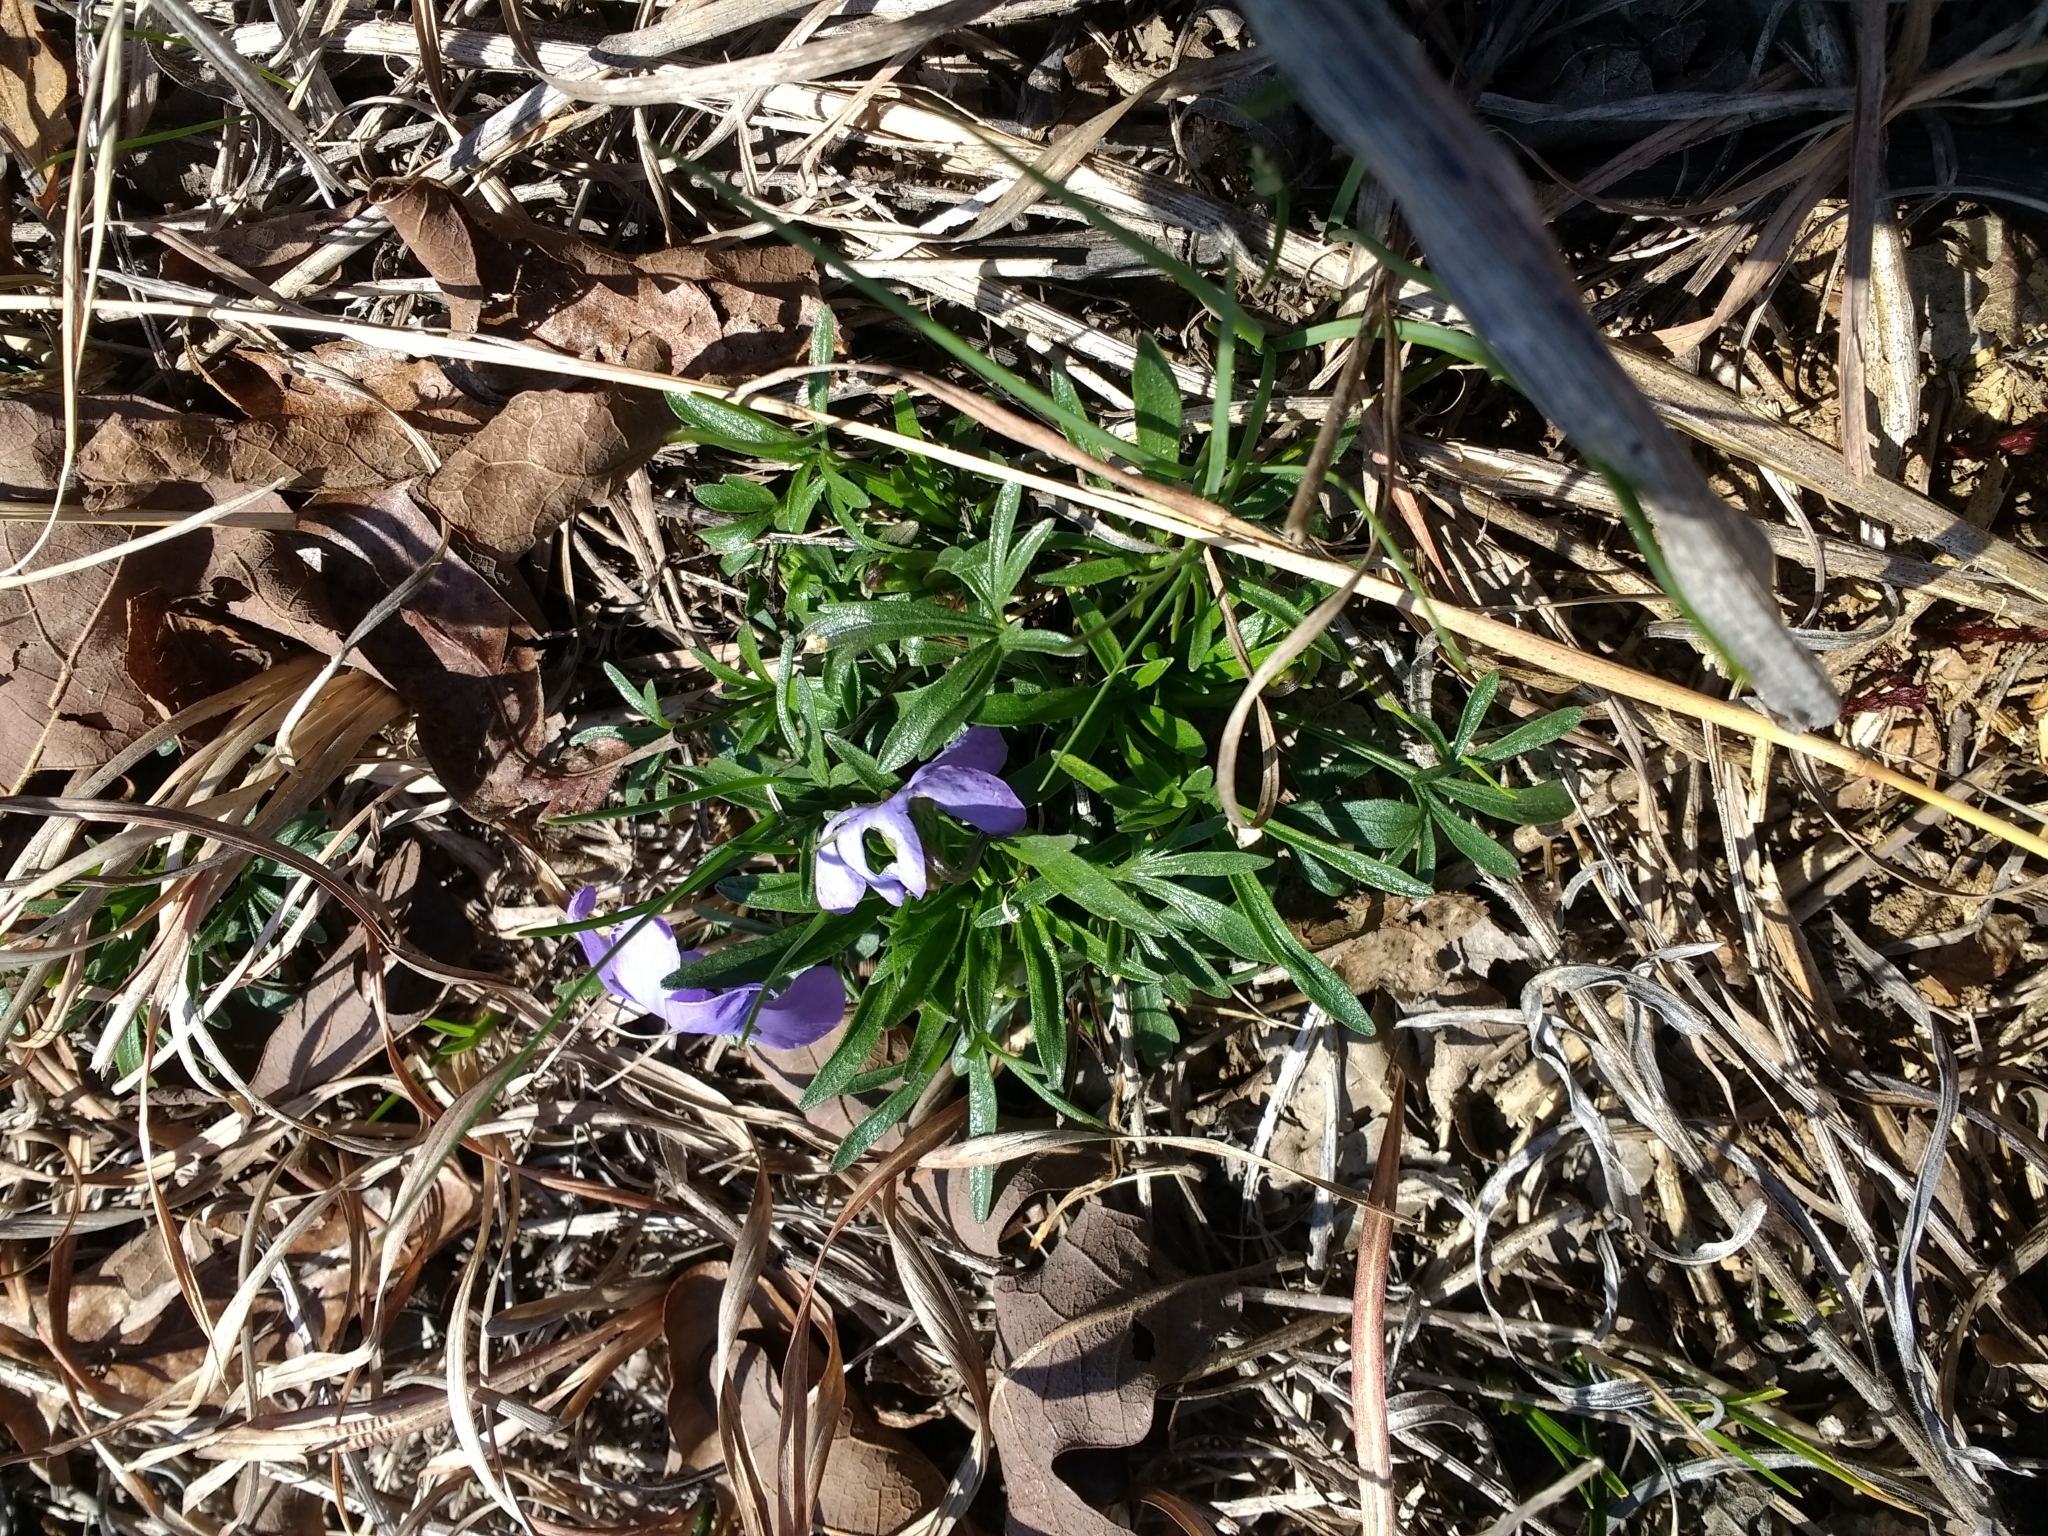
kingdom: Plantae
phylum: Tracheophyta
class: Magnoliopsida
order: Malpighiales
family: Violaceae
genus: Viola
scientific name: Viola pedata
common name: Pansy violet
